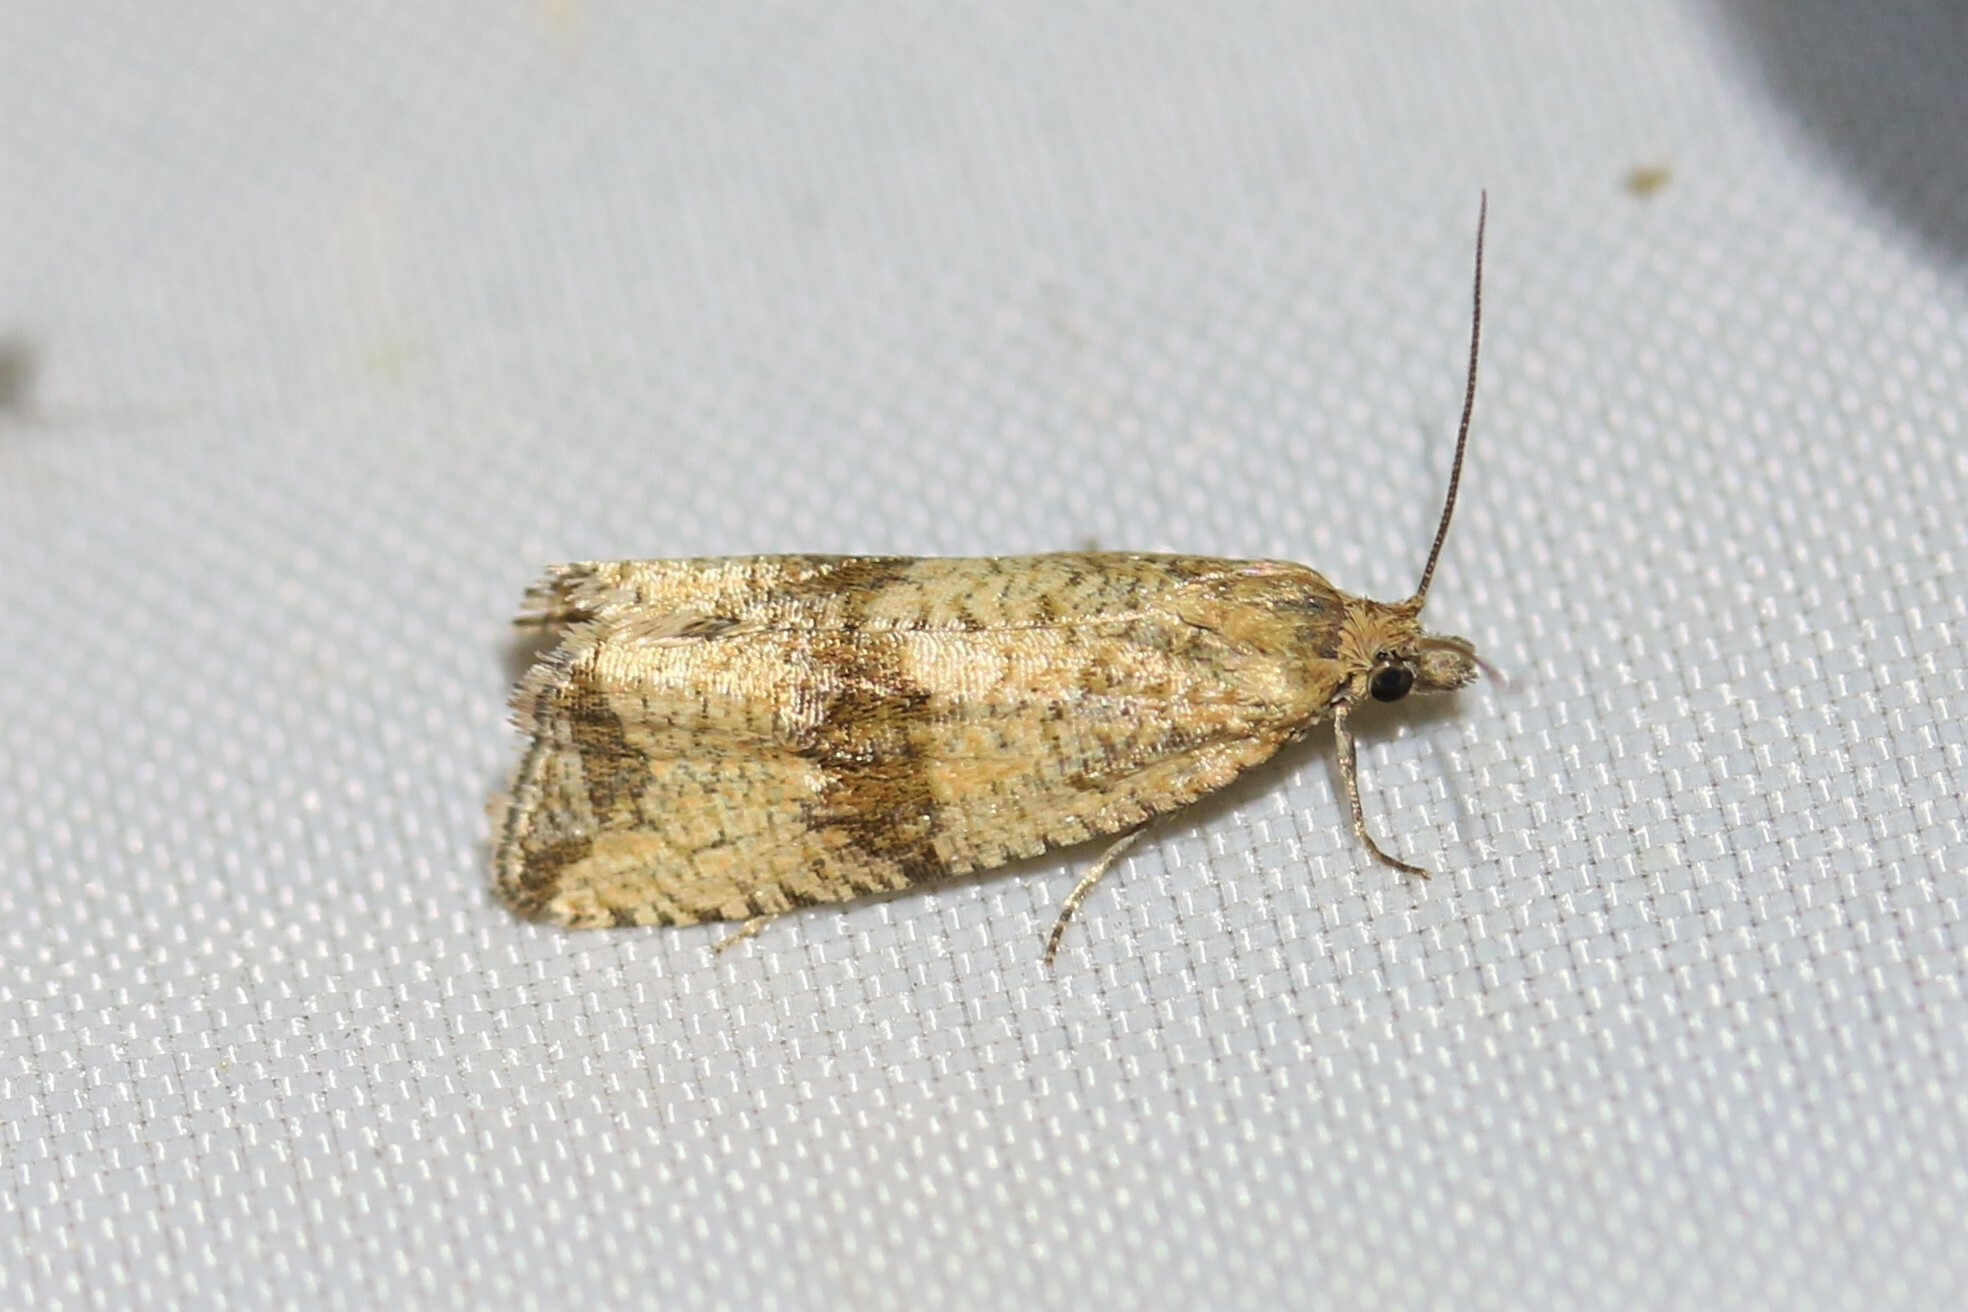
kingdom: Animalia
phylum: Arthropoda
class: Insecta
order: Lepidoptera
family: Tortricidae
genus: Celypha
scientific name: Celypha striana
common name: Barred marble
